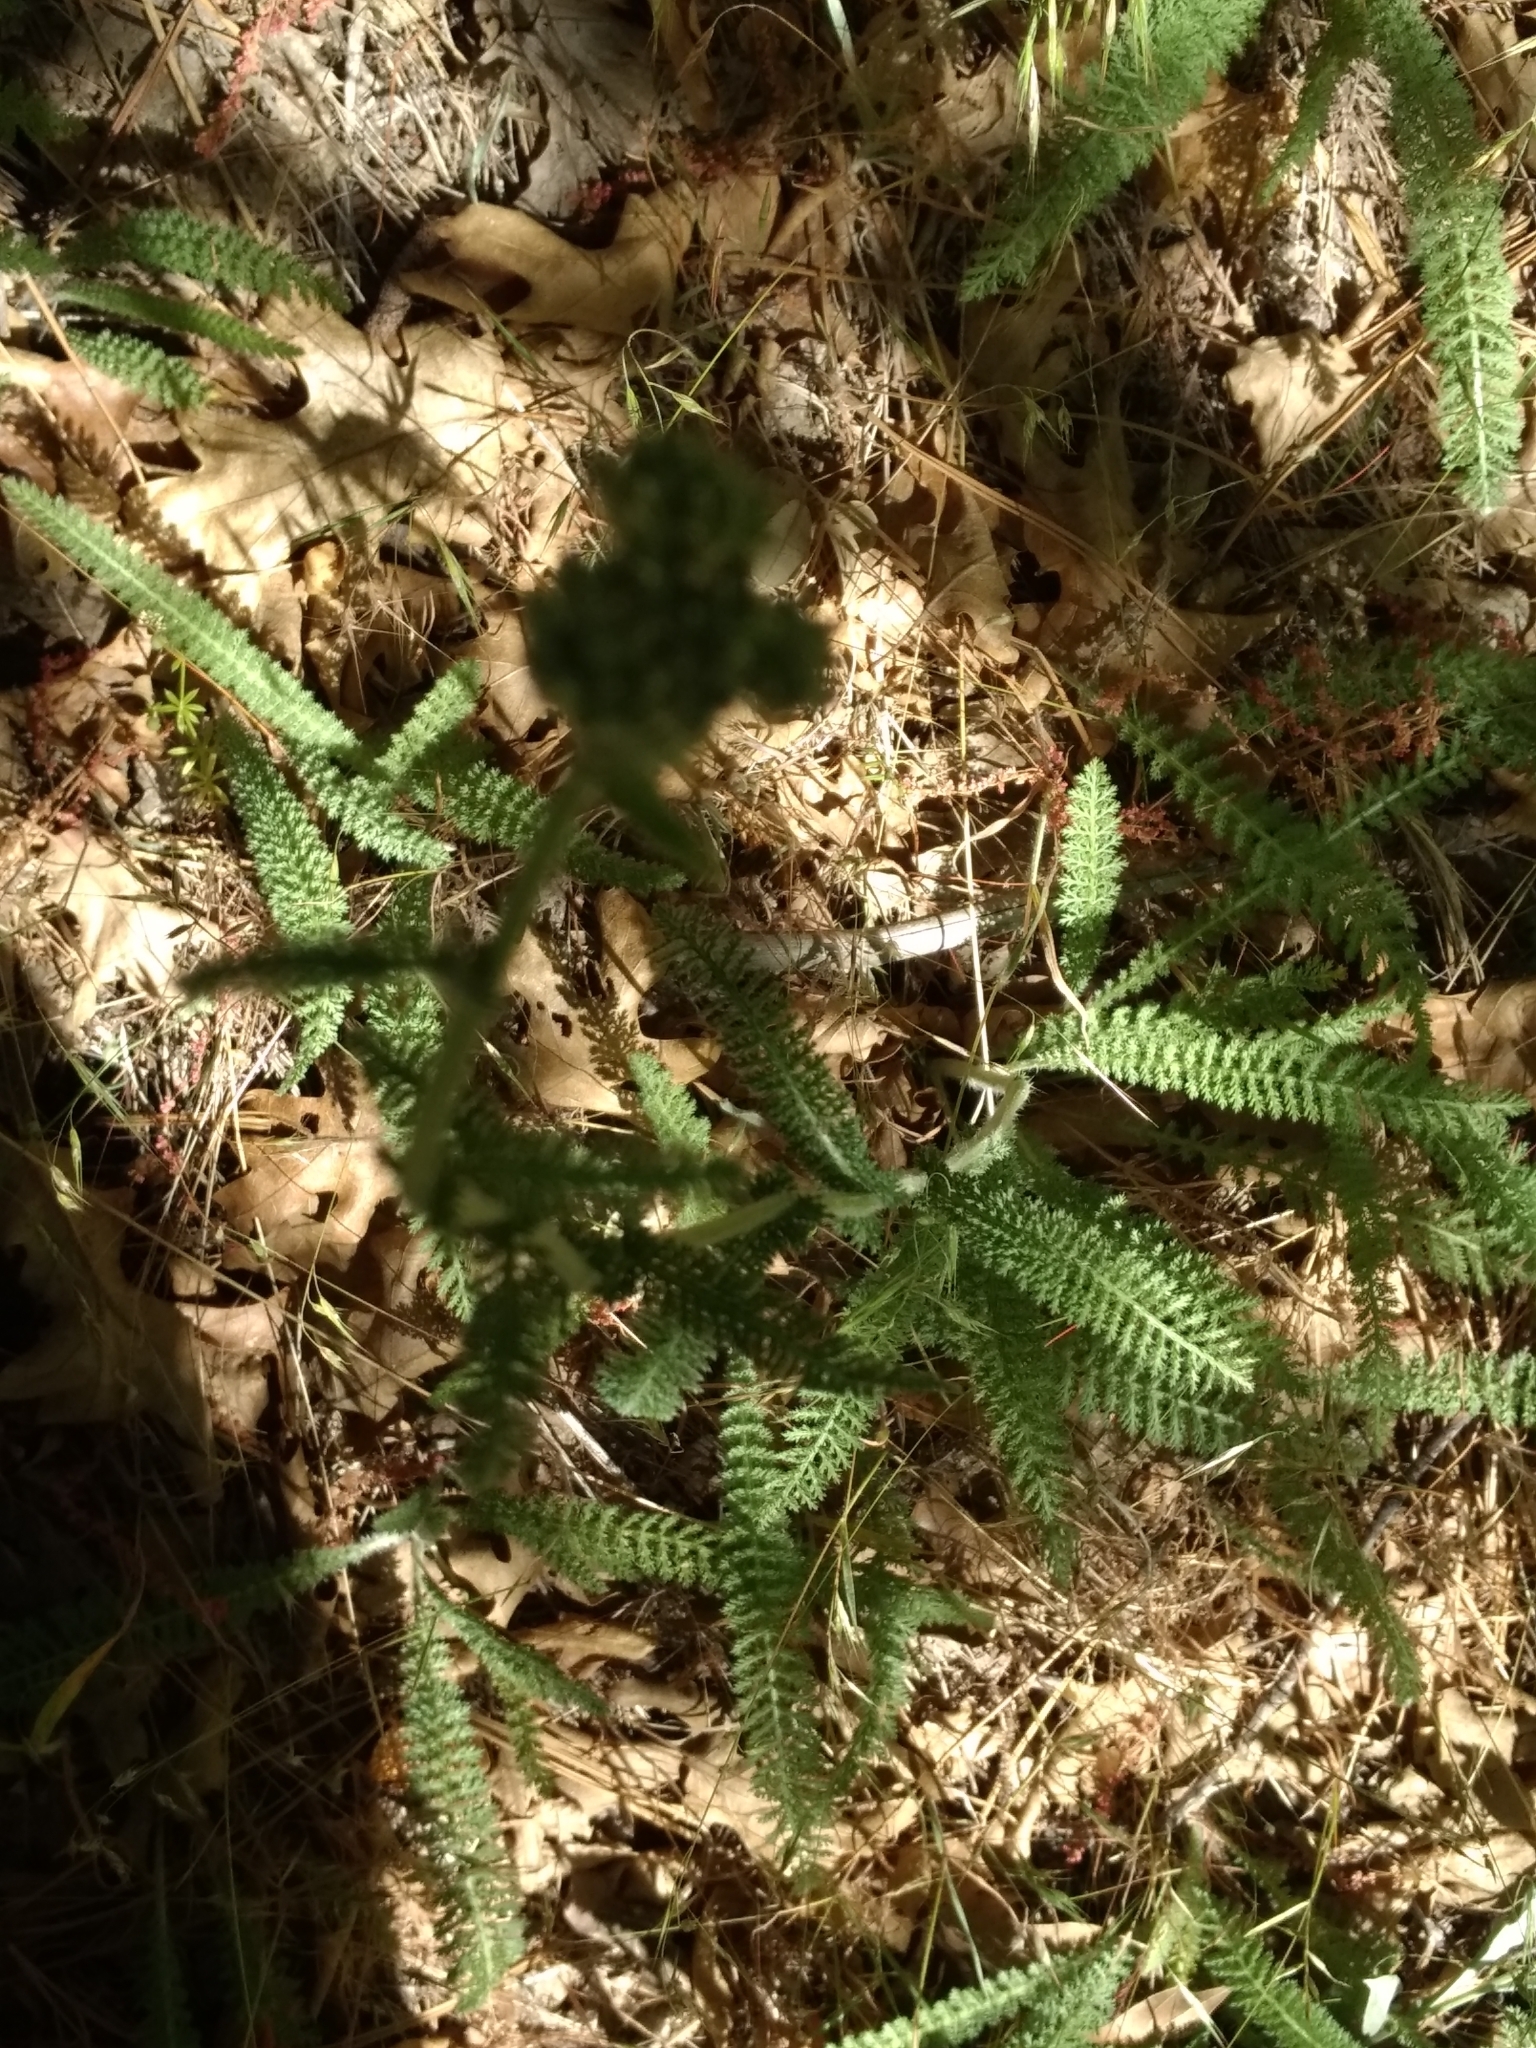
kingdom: Plantae
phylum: Tracheophyta
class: Magnoliopsida
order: Asterales
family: Asteraceae
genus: Achillea
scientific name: Achillea millefolium
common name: Yarrow
